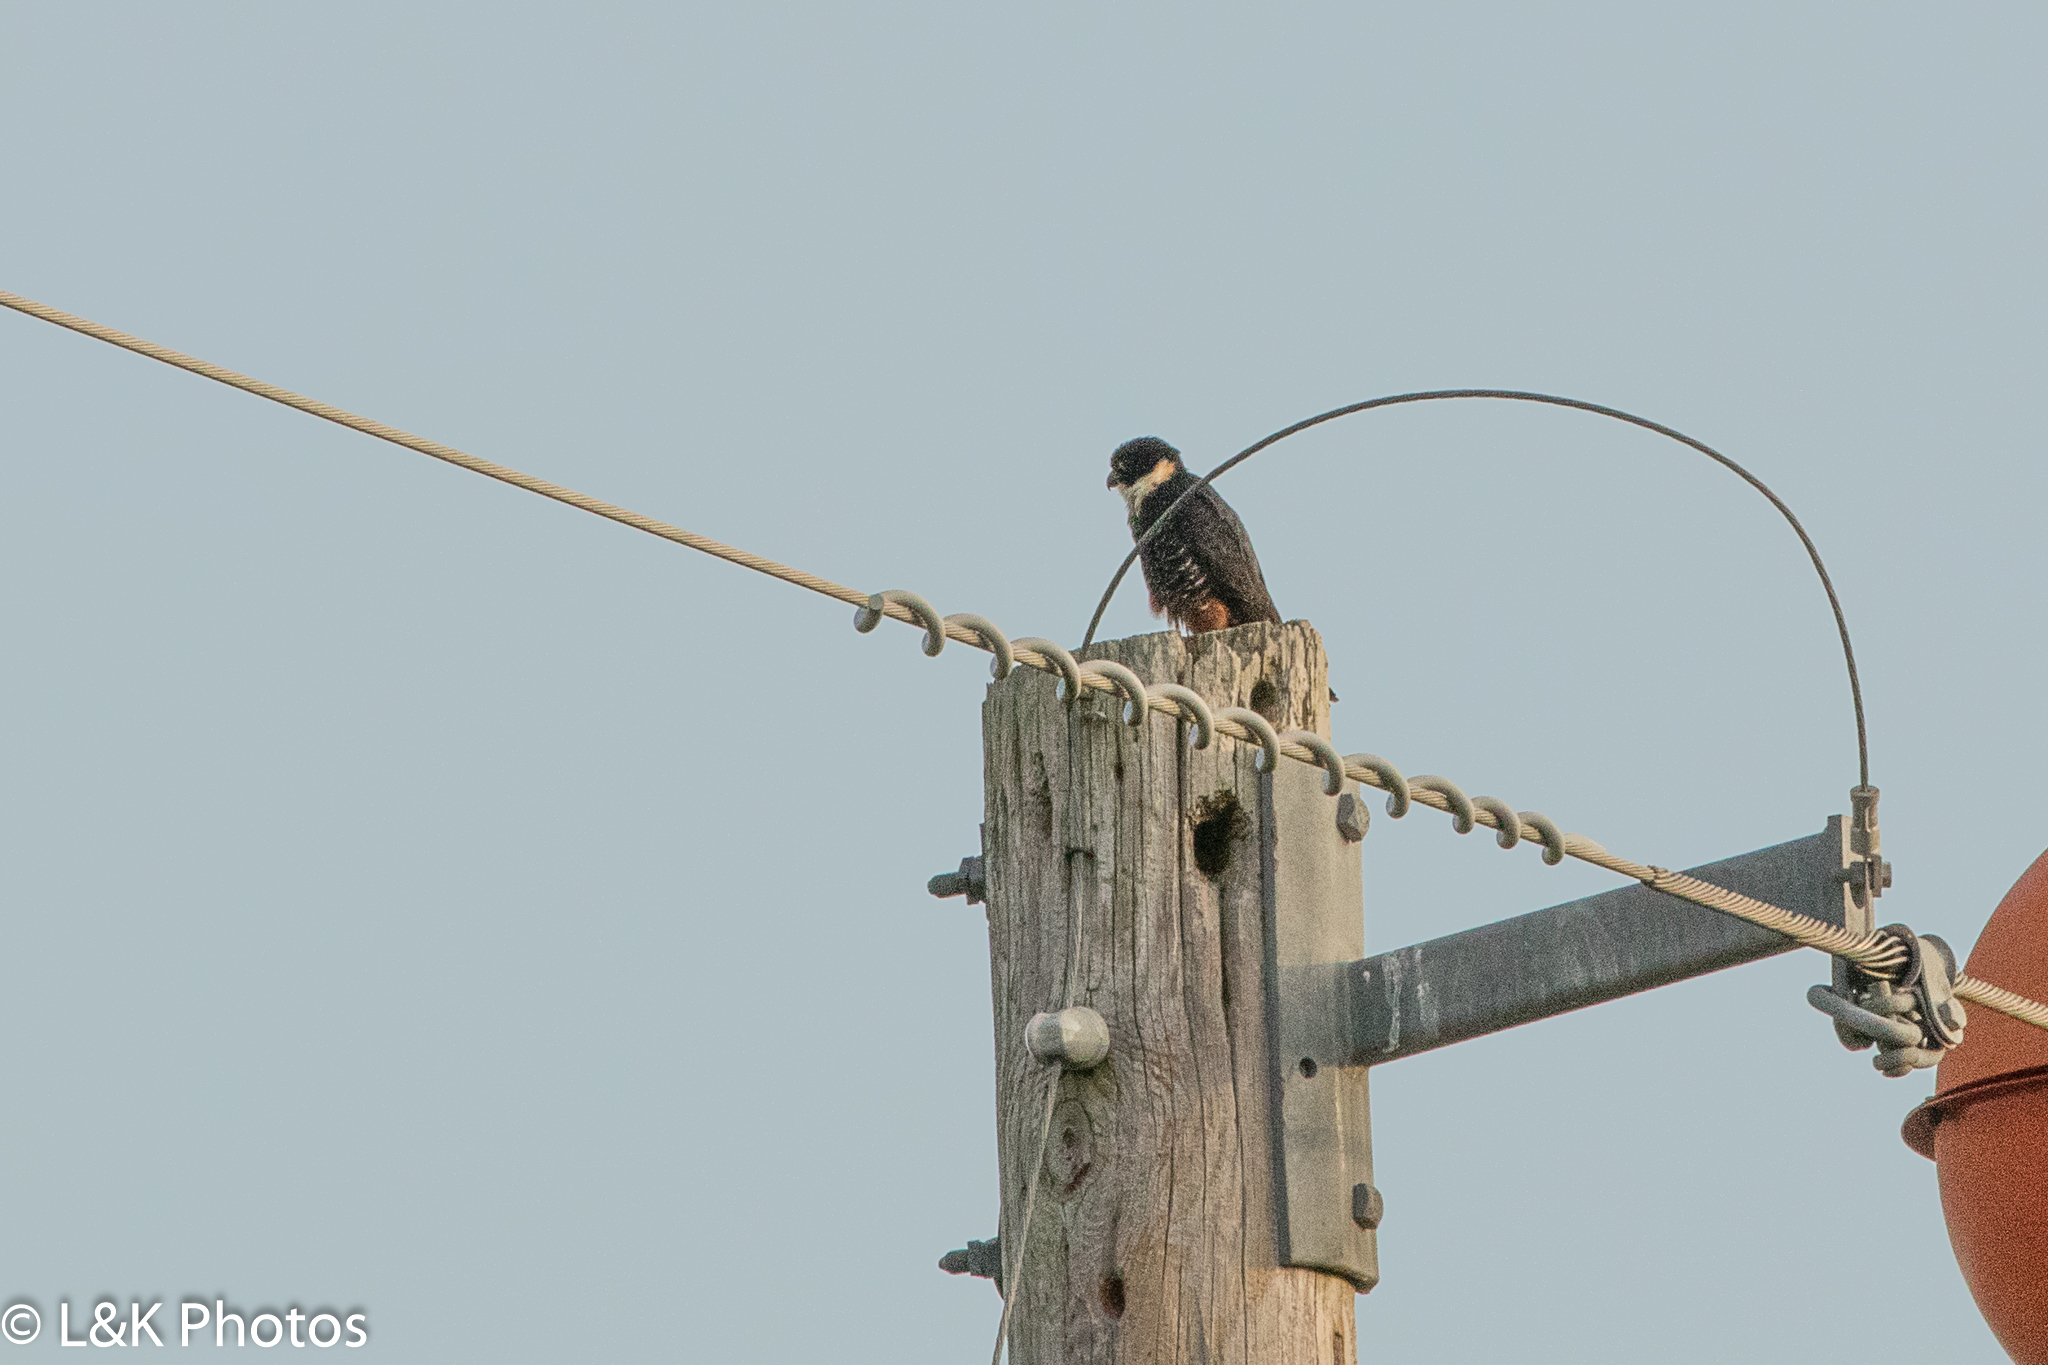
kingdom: Animalia
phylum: Chordata
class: Aves
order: Falconiformes
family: Falconidae
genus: Falco
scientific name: Falco rufigularis
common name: Bat falcon
